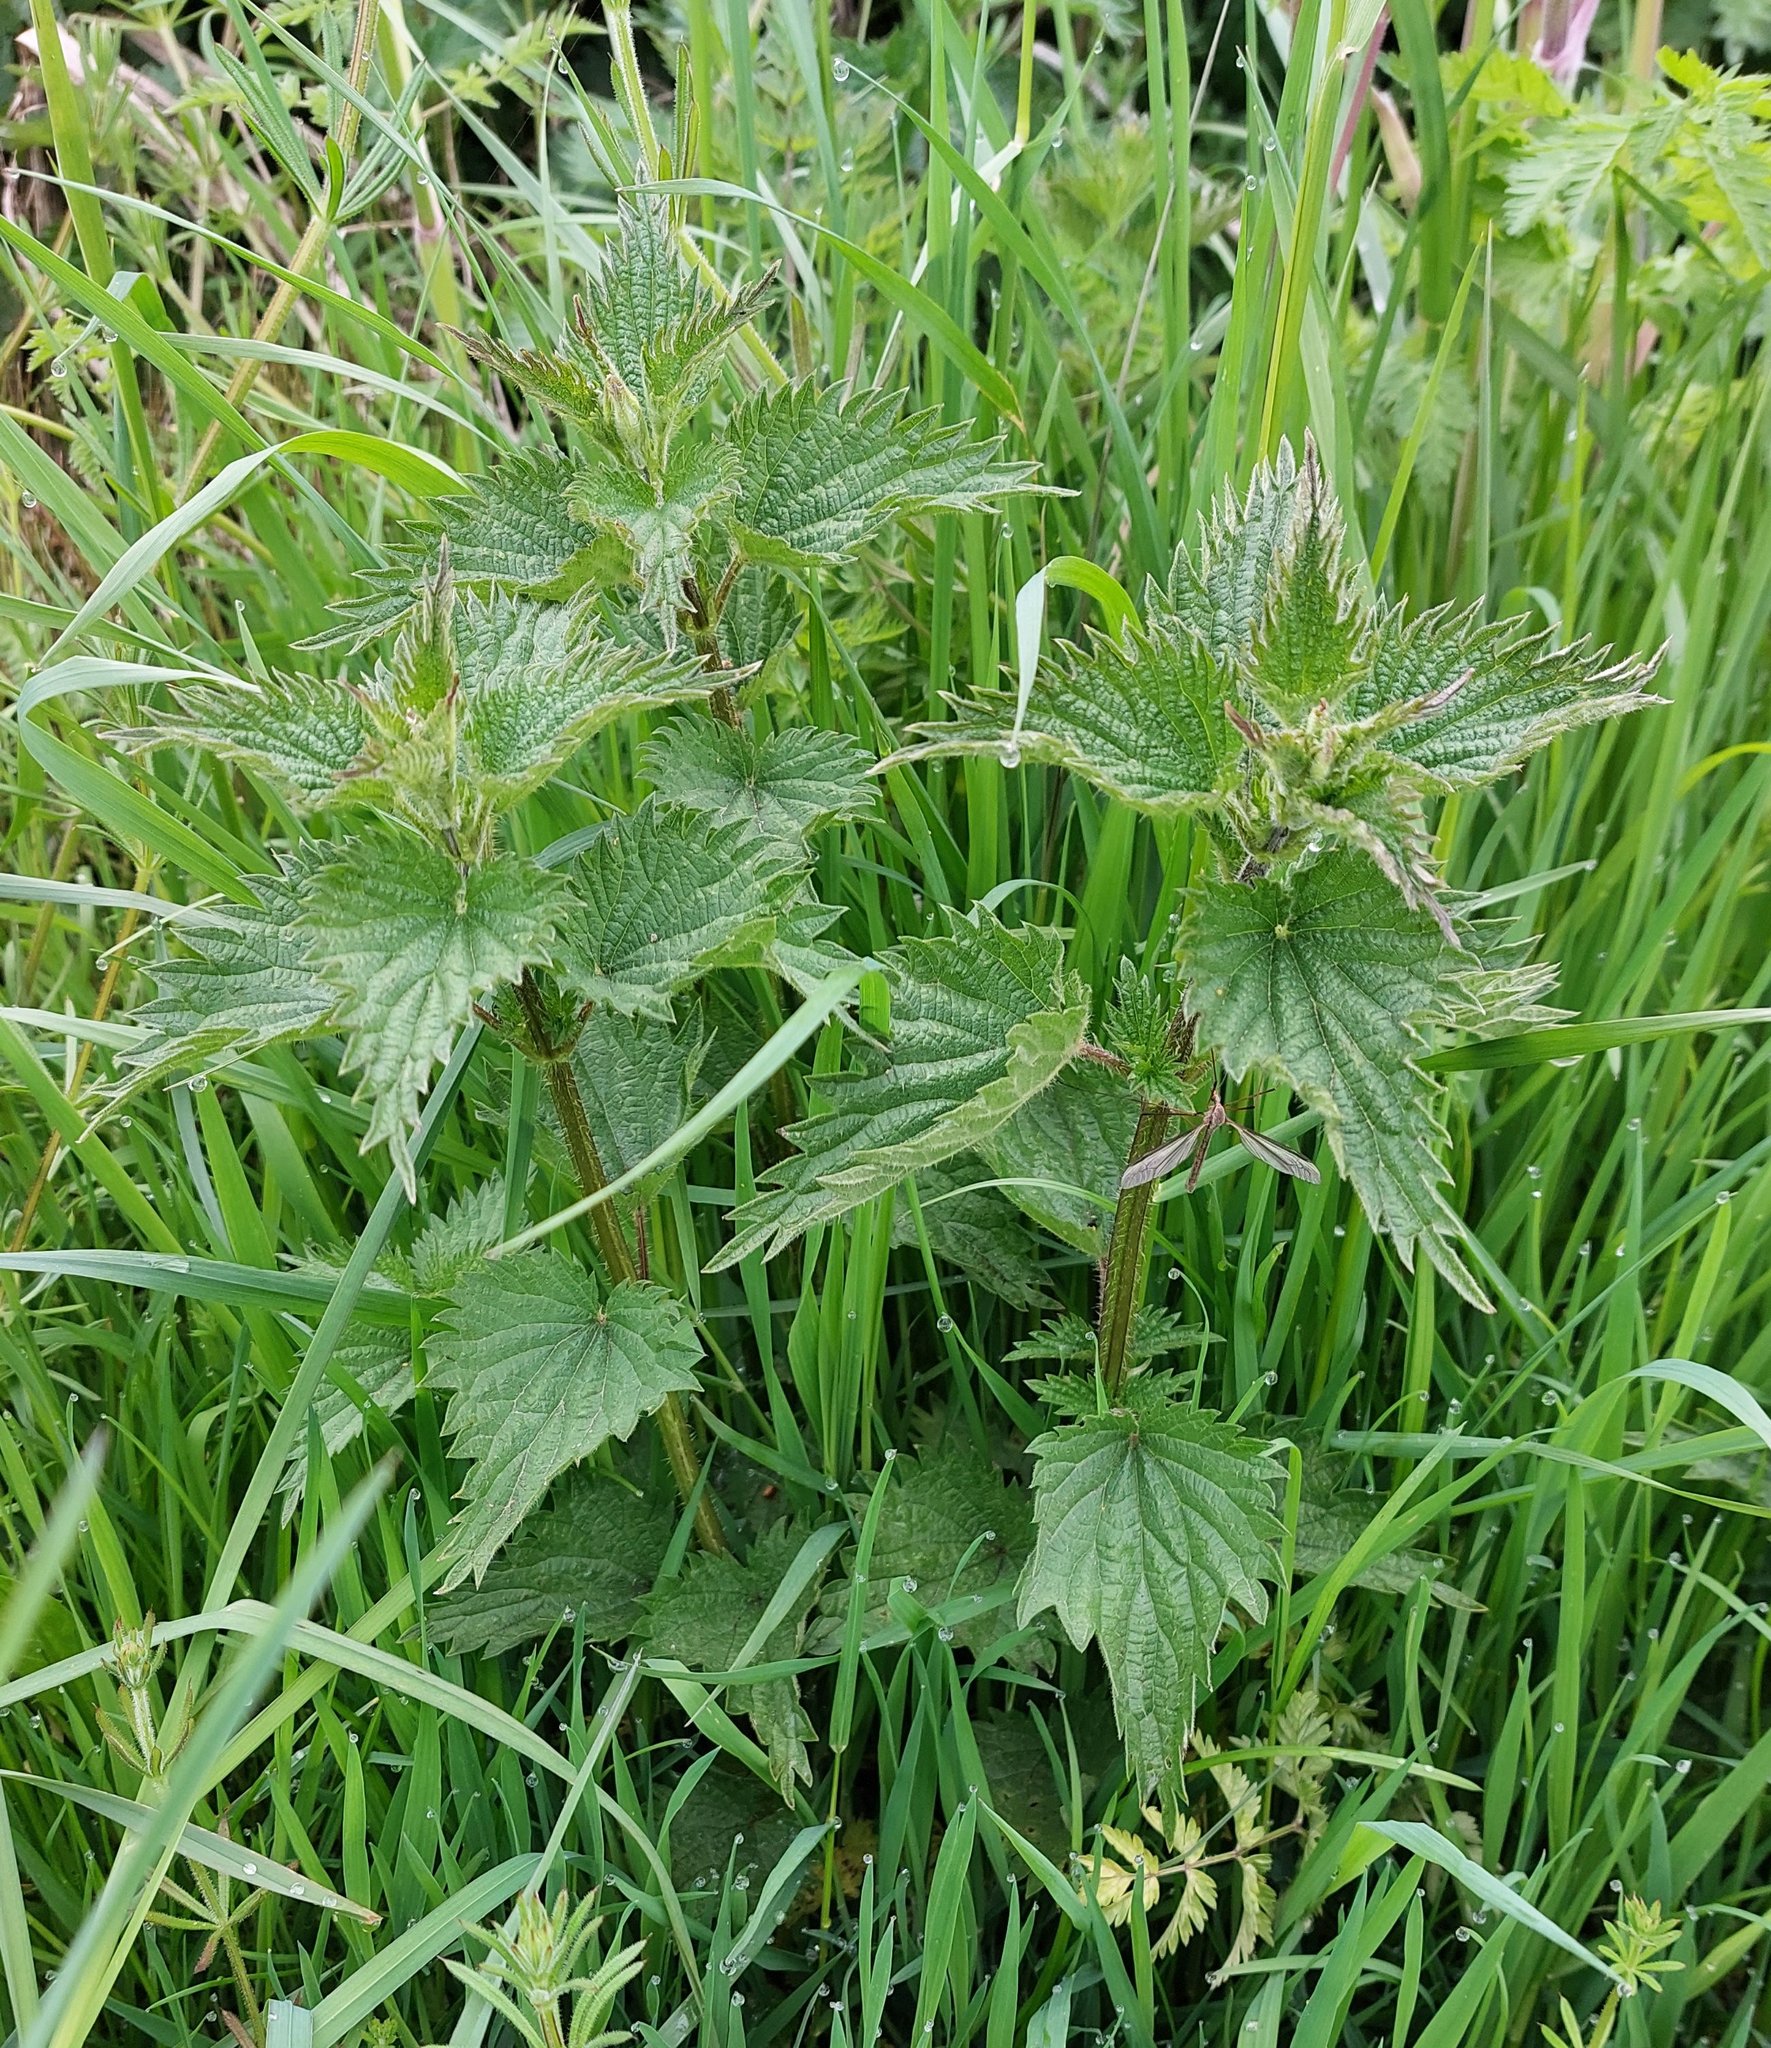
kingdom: Plantae
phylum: Tracheophyta
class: Magnoliopsida
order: Rosales
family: Urticaceae
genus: Urtica
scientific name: Urtica dioica
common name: Common nettle
